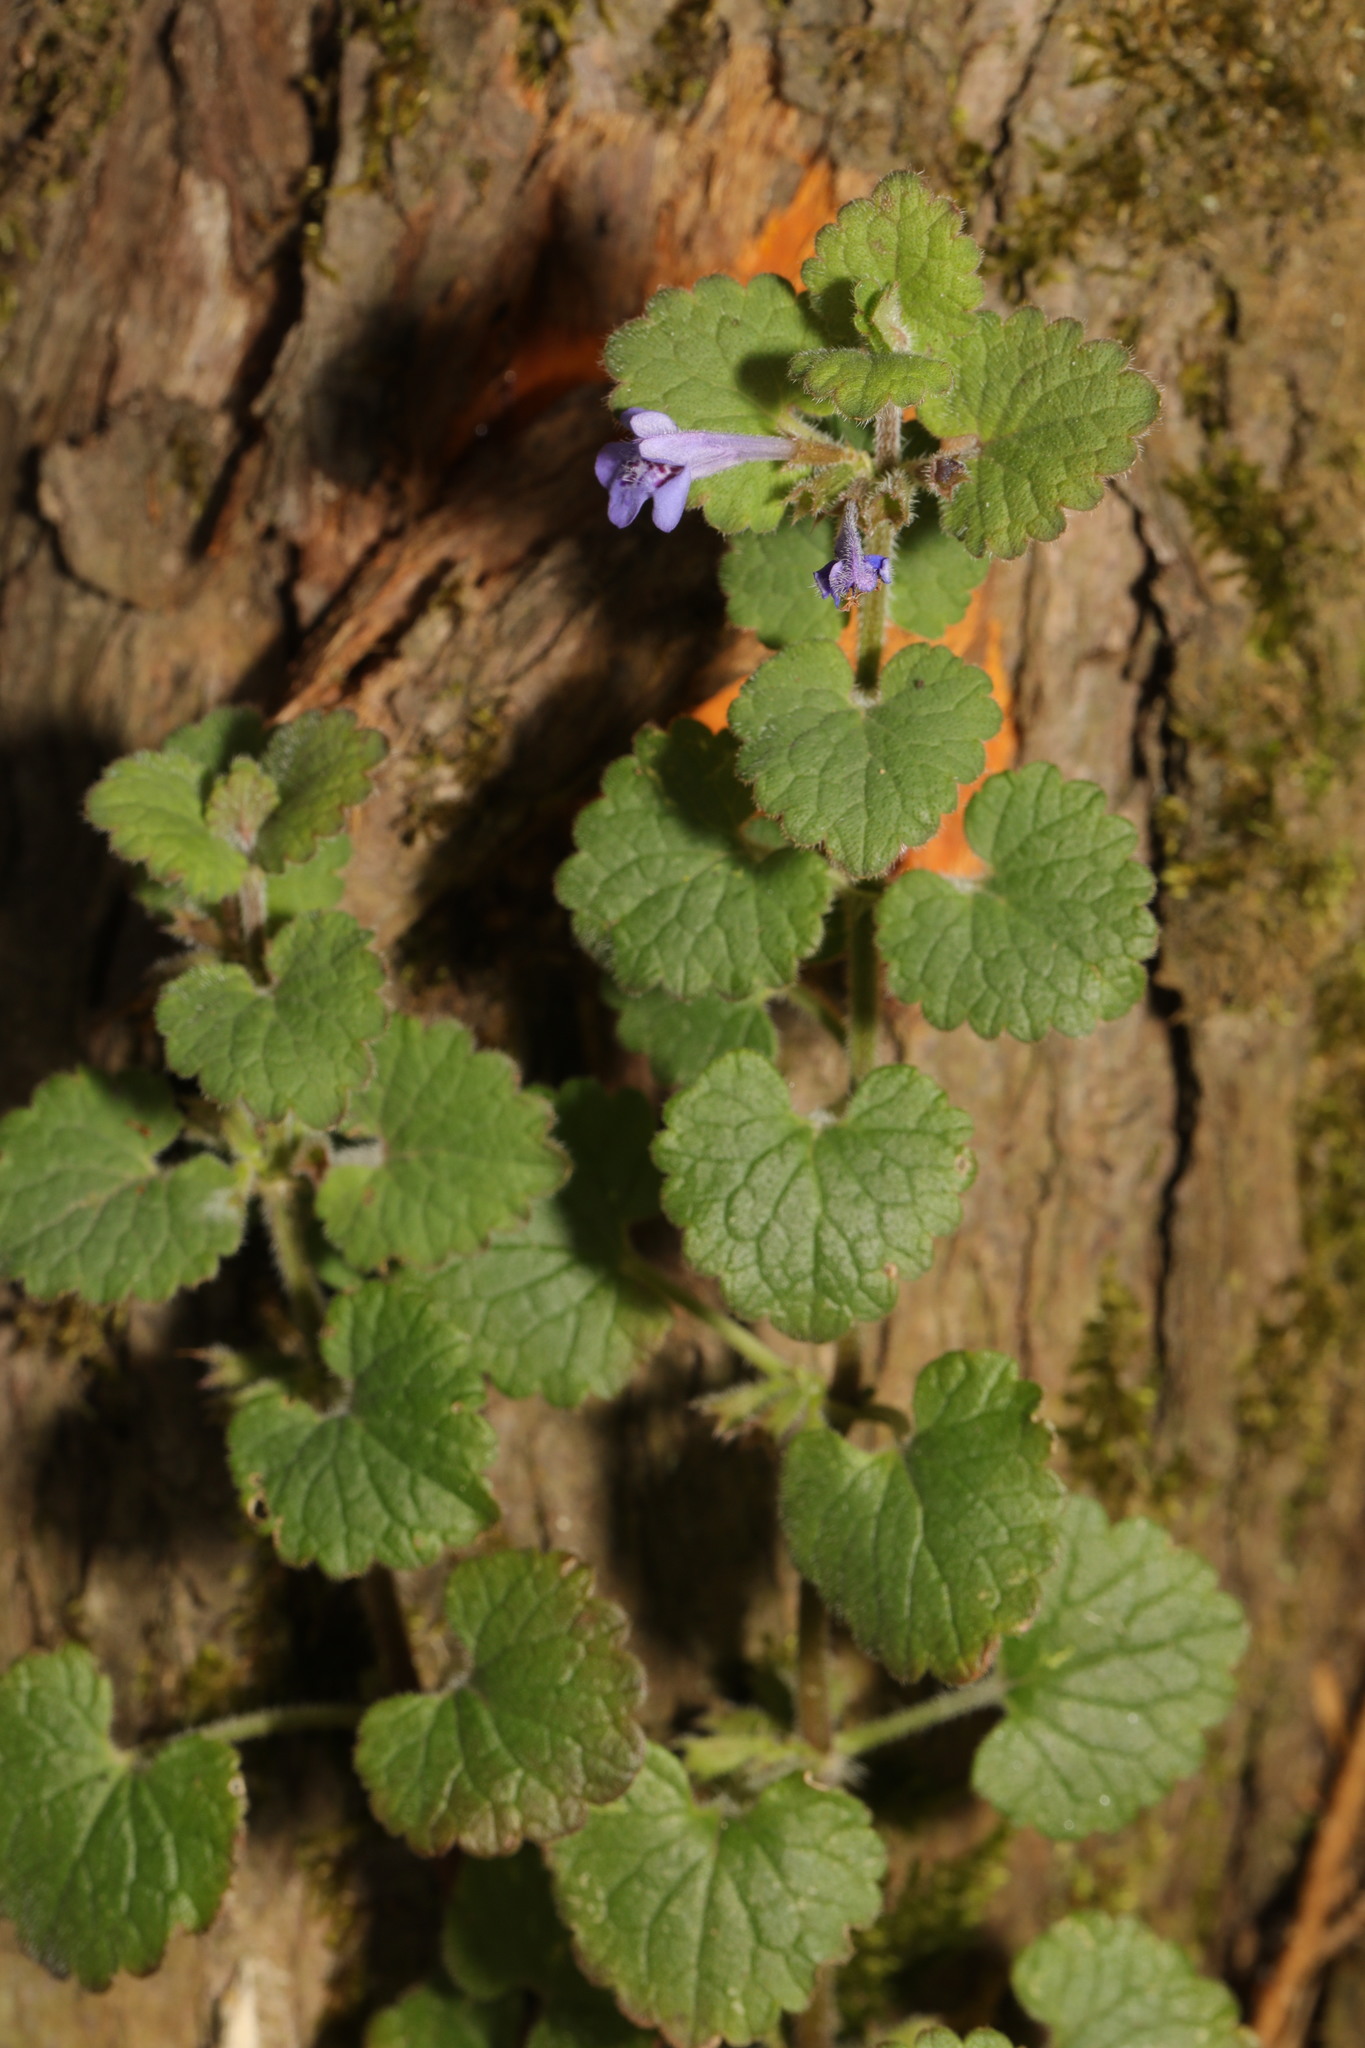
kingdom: Plantae
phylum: Tracheophyta
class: Magnoliopsida
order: Lamiales
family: Lamiaceae
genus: Glechoma
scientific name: Glechoma hederacea
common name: Ground ivy
